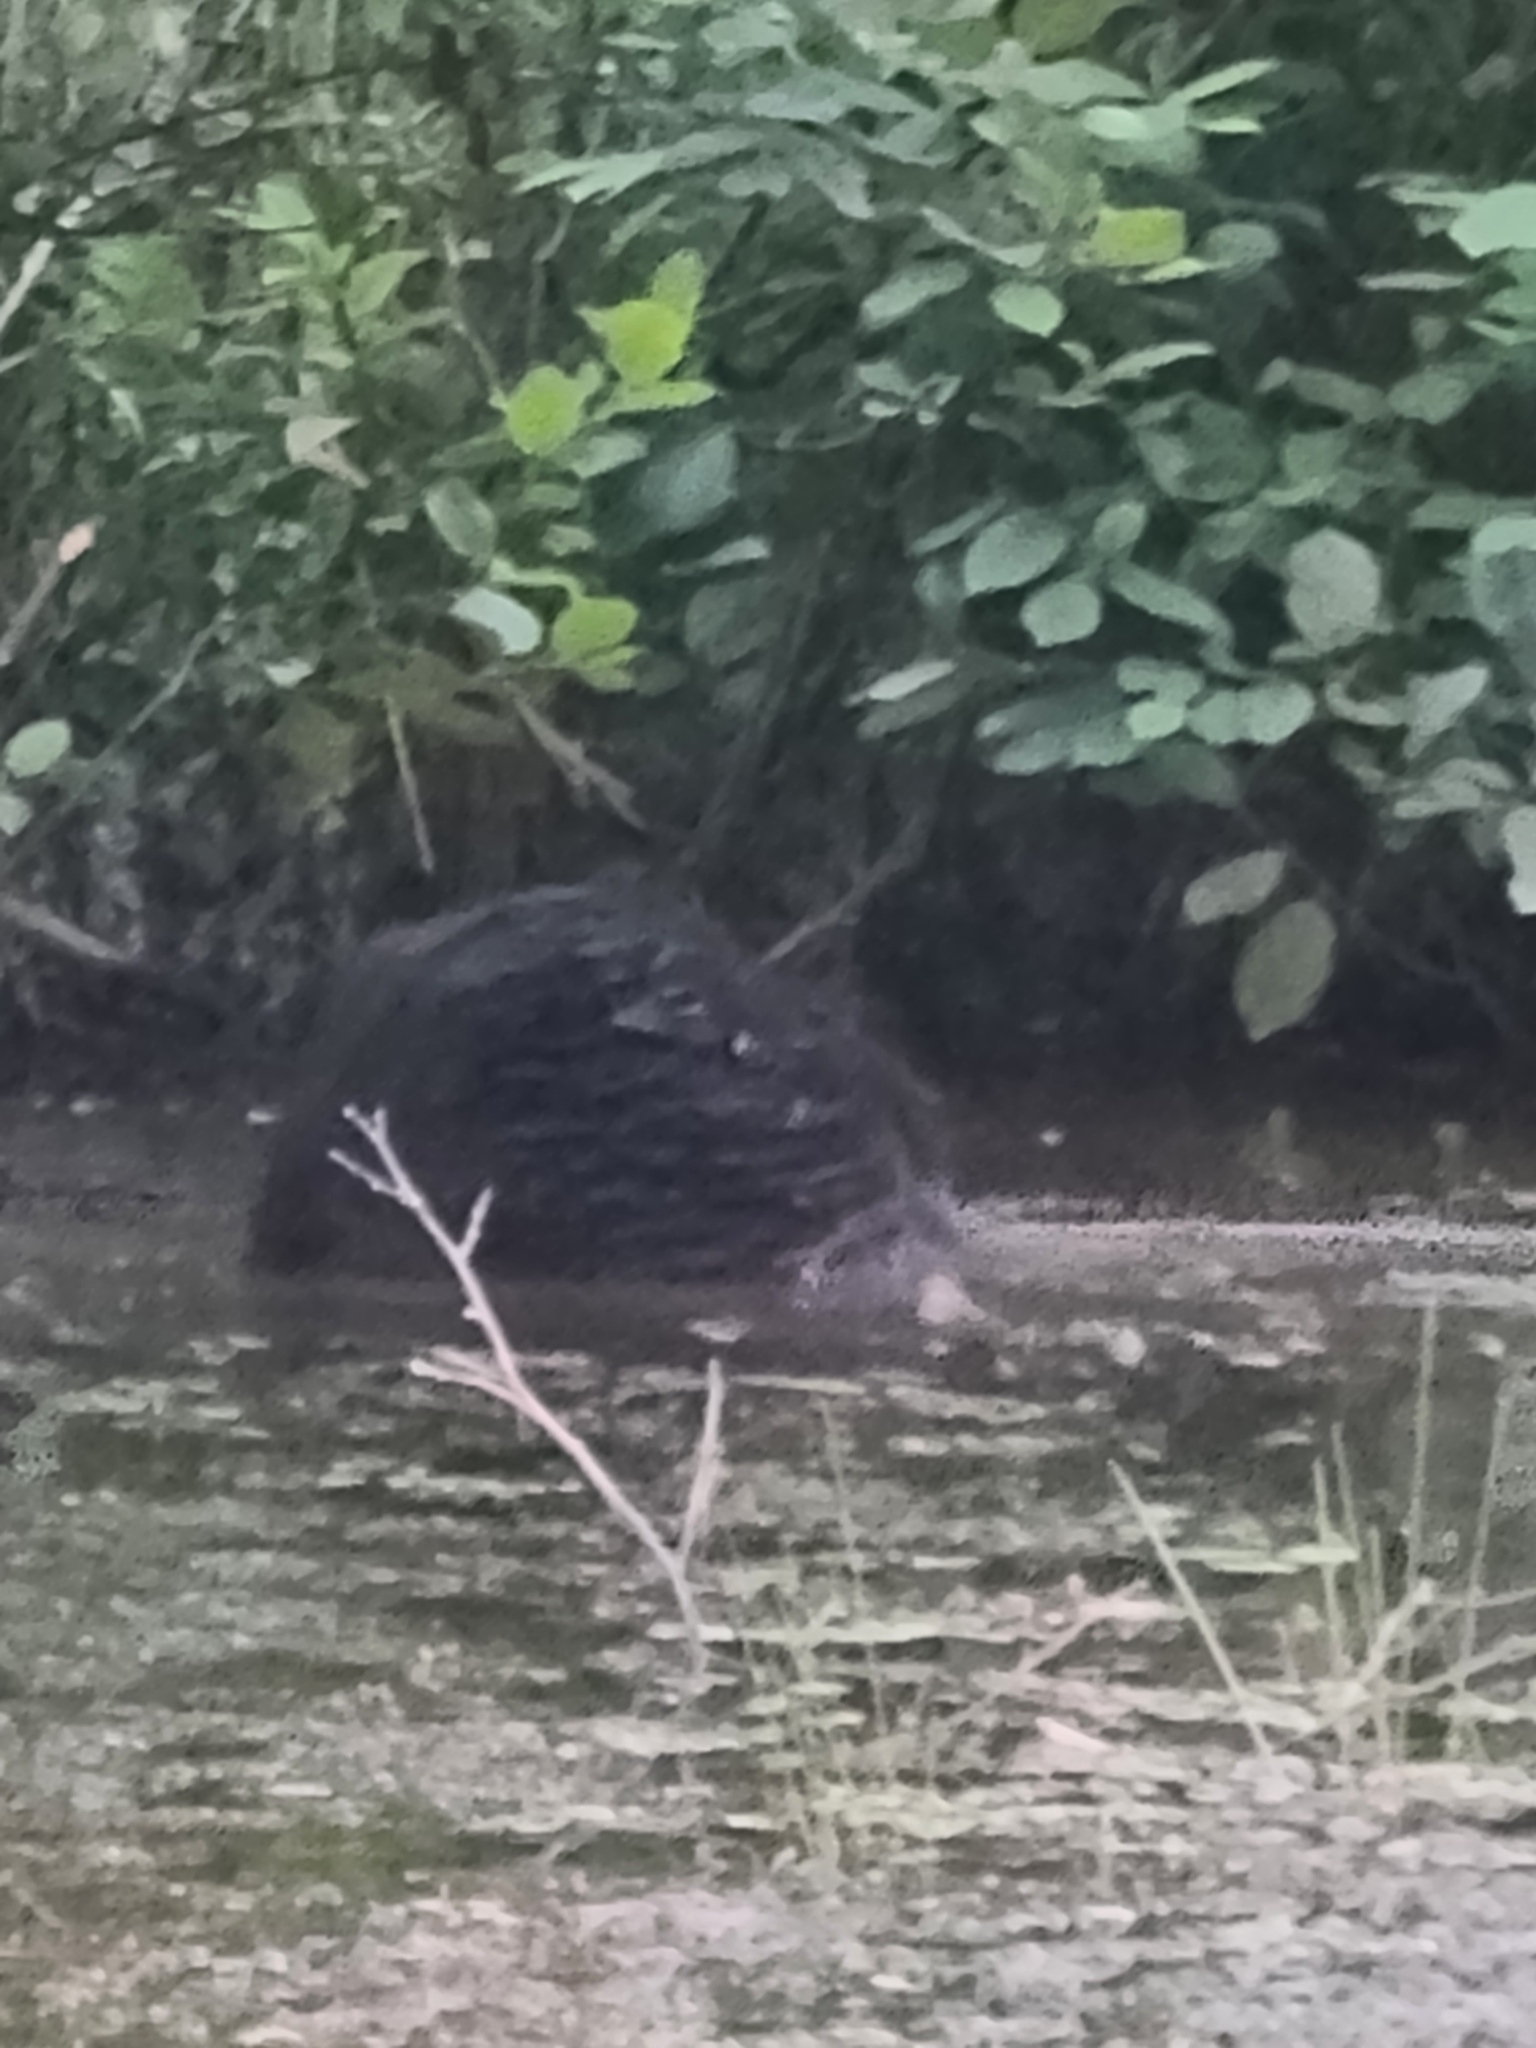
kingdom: Animalia
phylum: Chordata
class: Mammalia
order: Rodentia
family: Castoridae
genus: Castor
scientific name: Castor canadensis
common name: American beaver
